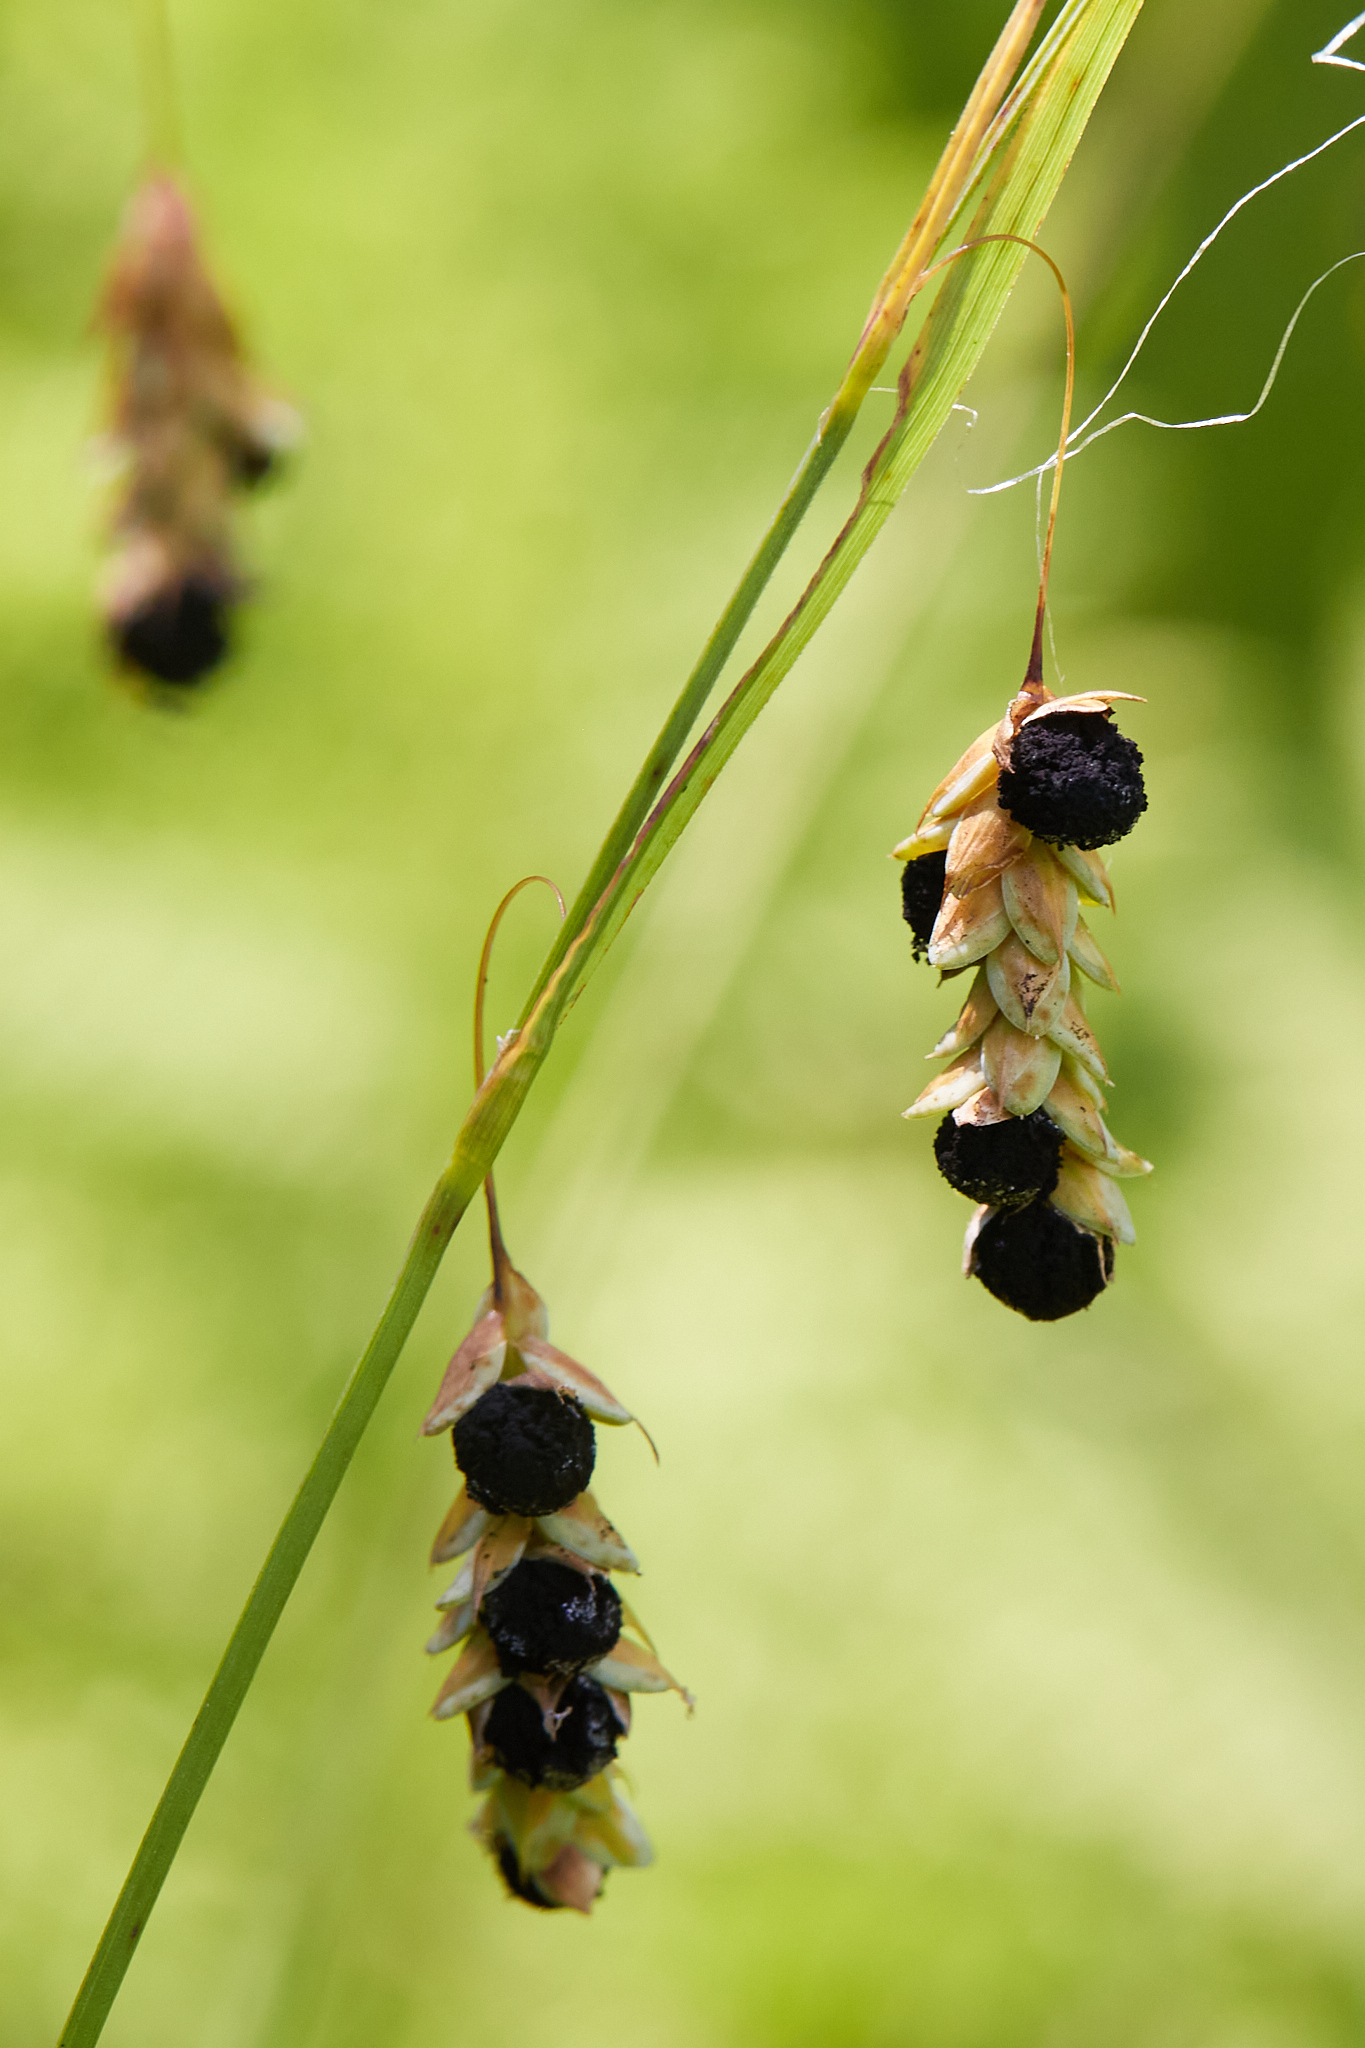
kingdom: Plantae
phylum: Tracheophyta
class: Liliopsida
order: Poales
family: Cyperaceae
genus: Carex
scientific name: Carex limosa
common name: Bog sedge
